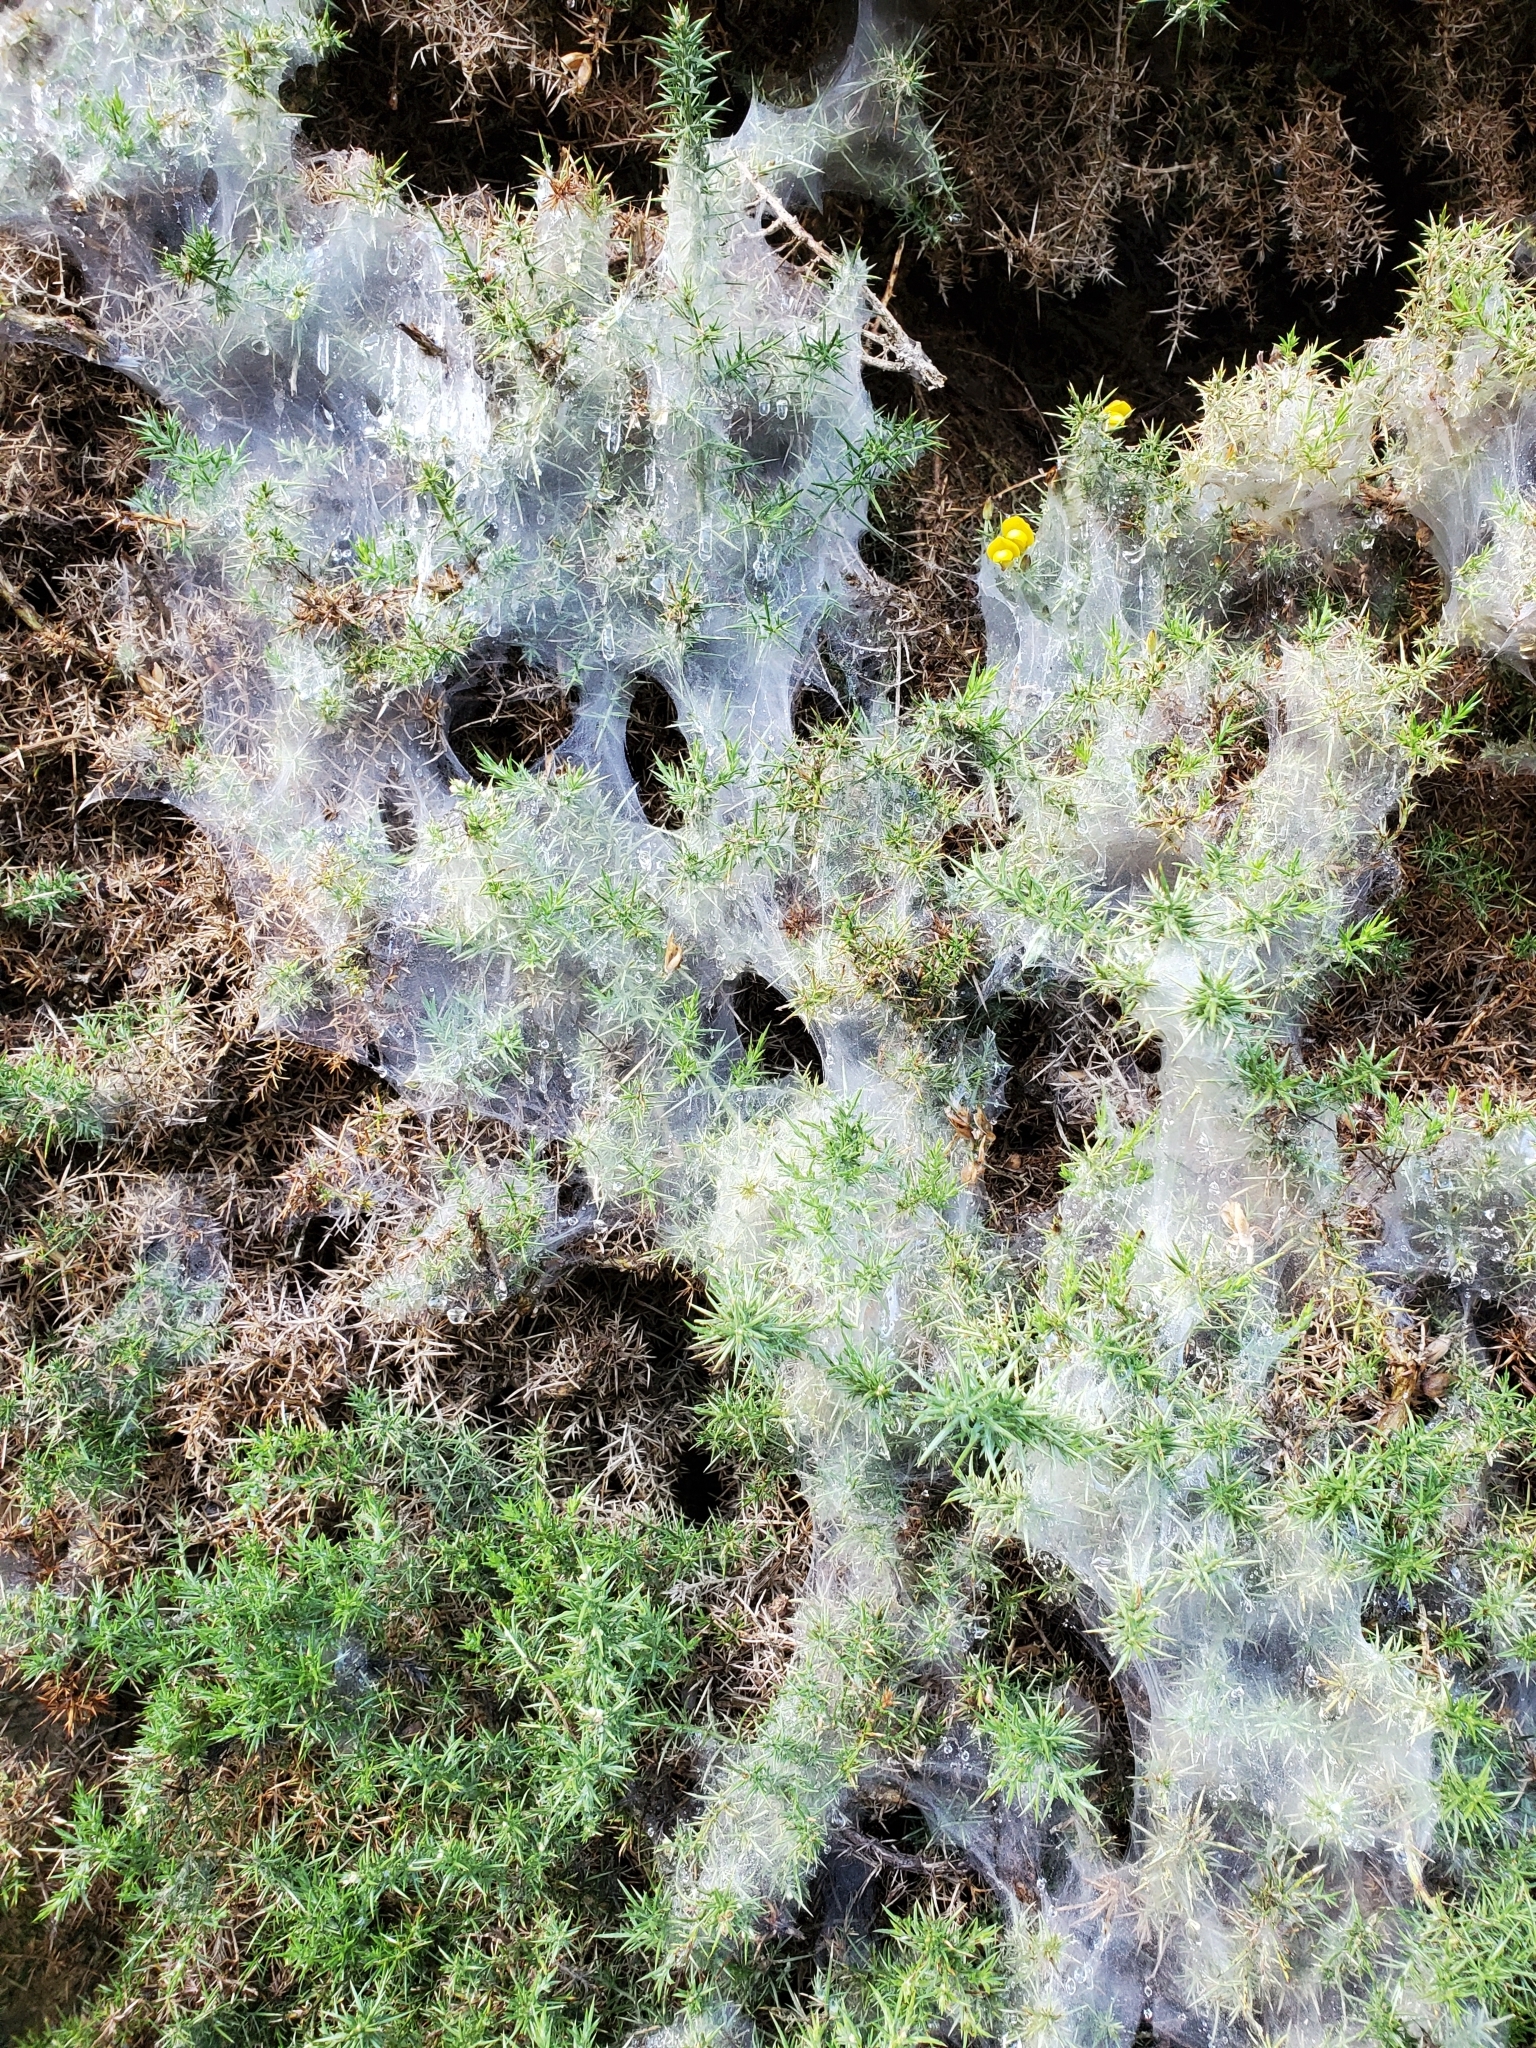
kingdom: Animalia
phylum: Arthropoda
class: Arachnida
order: Trombidiformes
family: Tetranychidae
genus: Tetranychus
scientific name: Tetranychus lintearius
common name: Gorse spider mite
